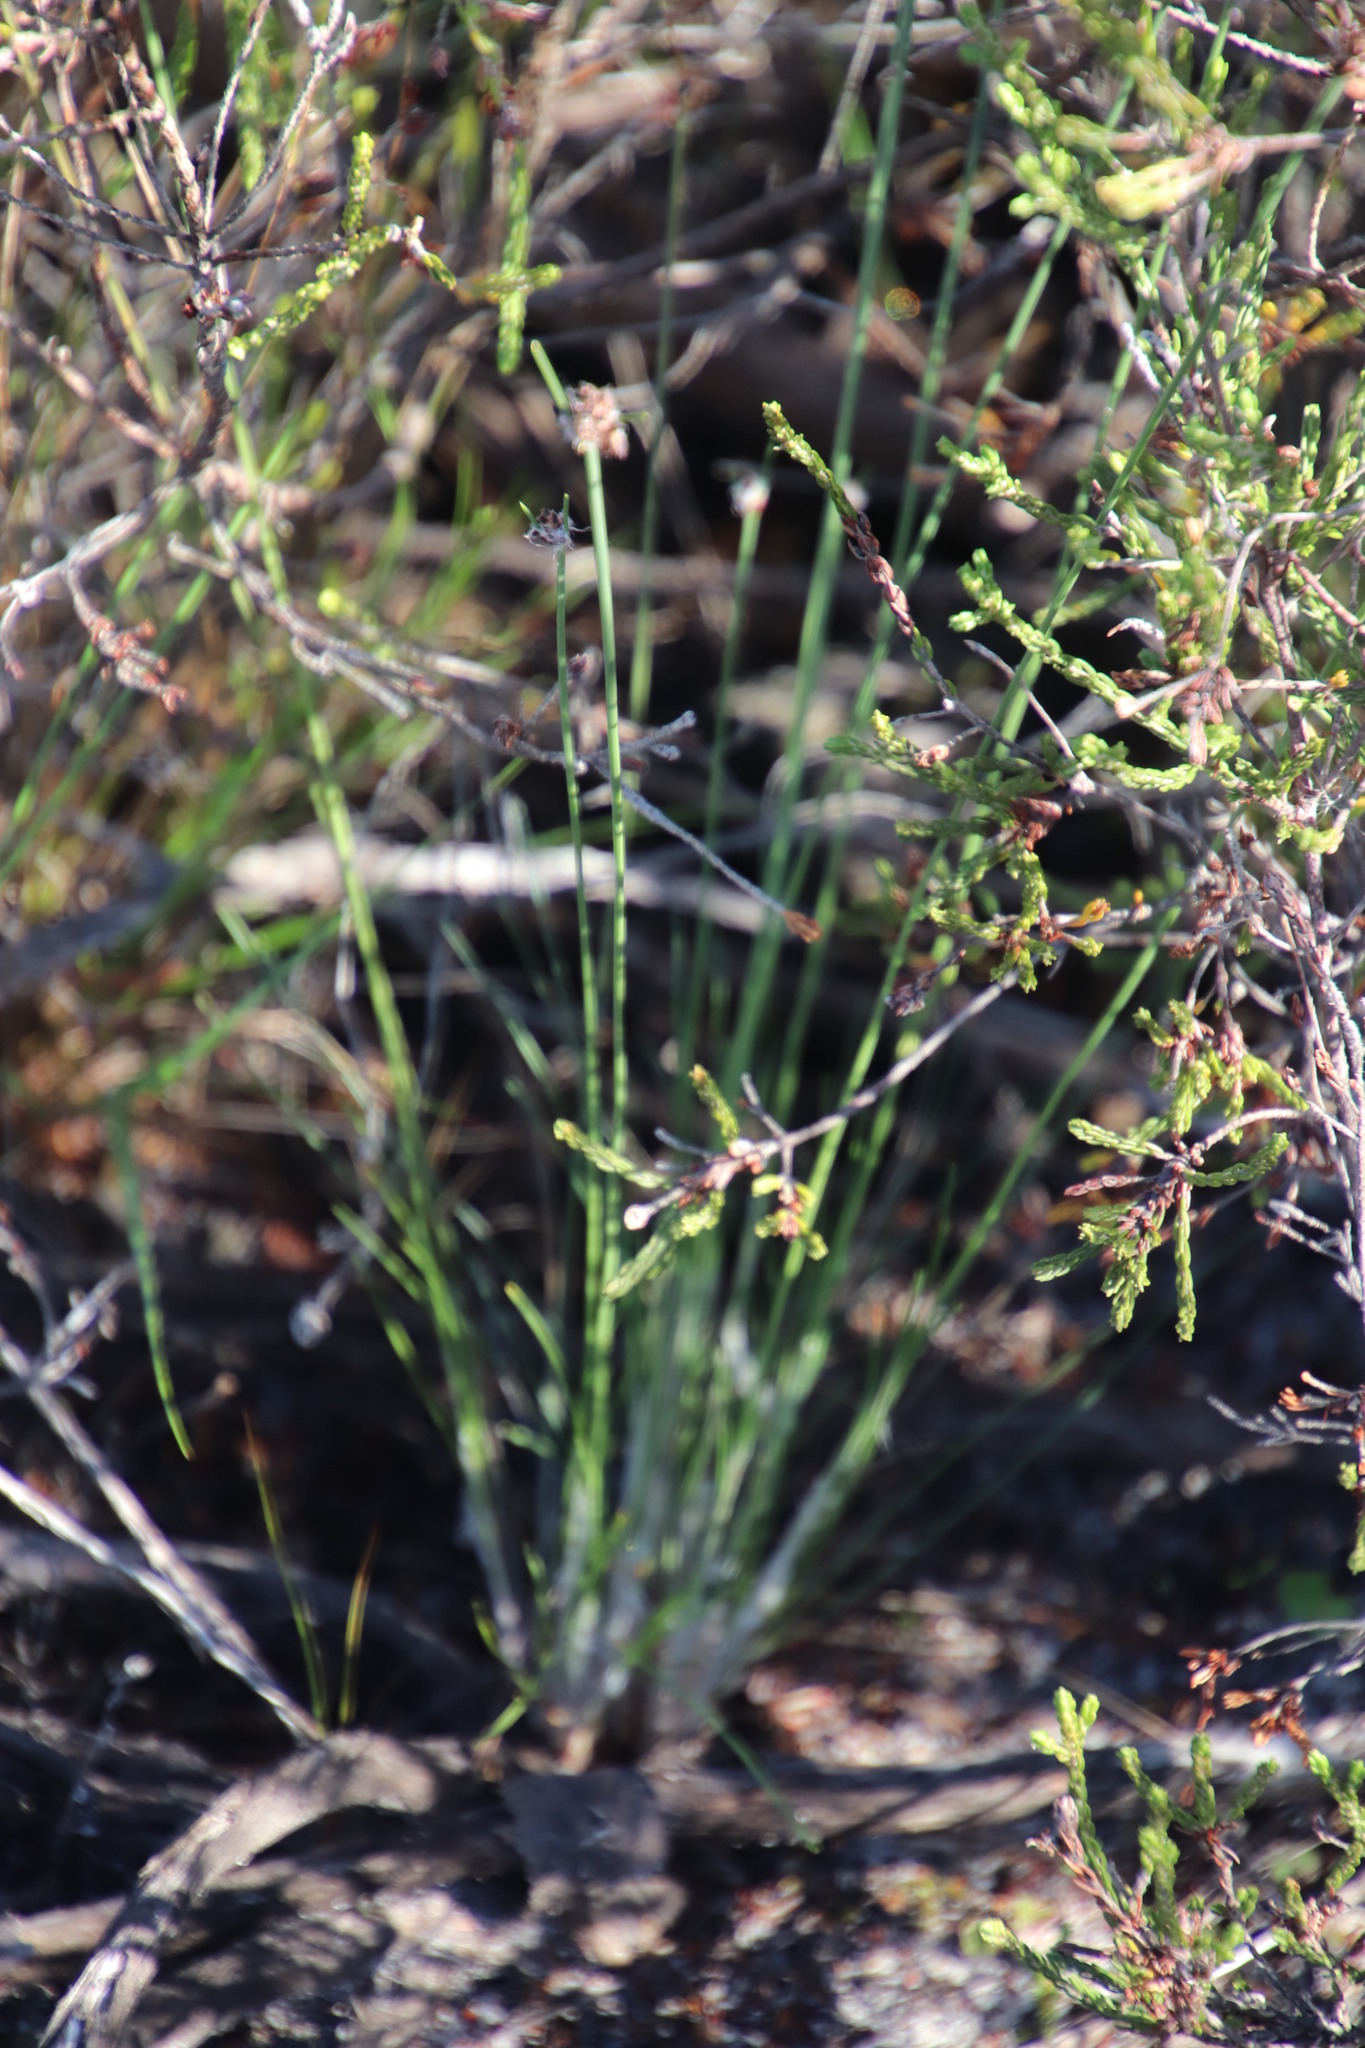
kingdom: Plantae
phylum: Tracheophyta
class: Liliopsida
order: Poales
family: Cyperaceae
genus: Ficinia
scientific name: Ficinia laciniata
